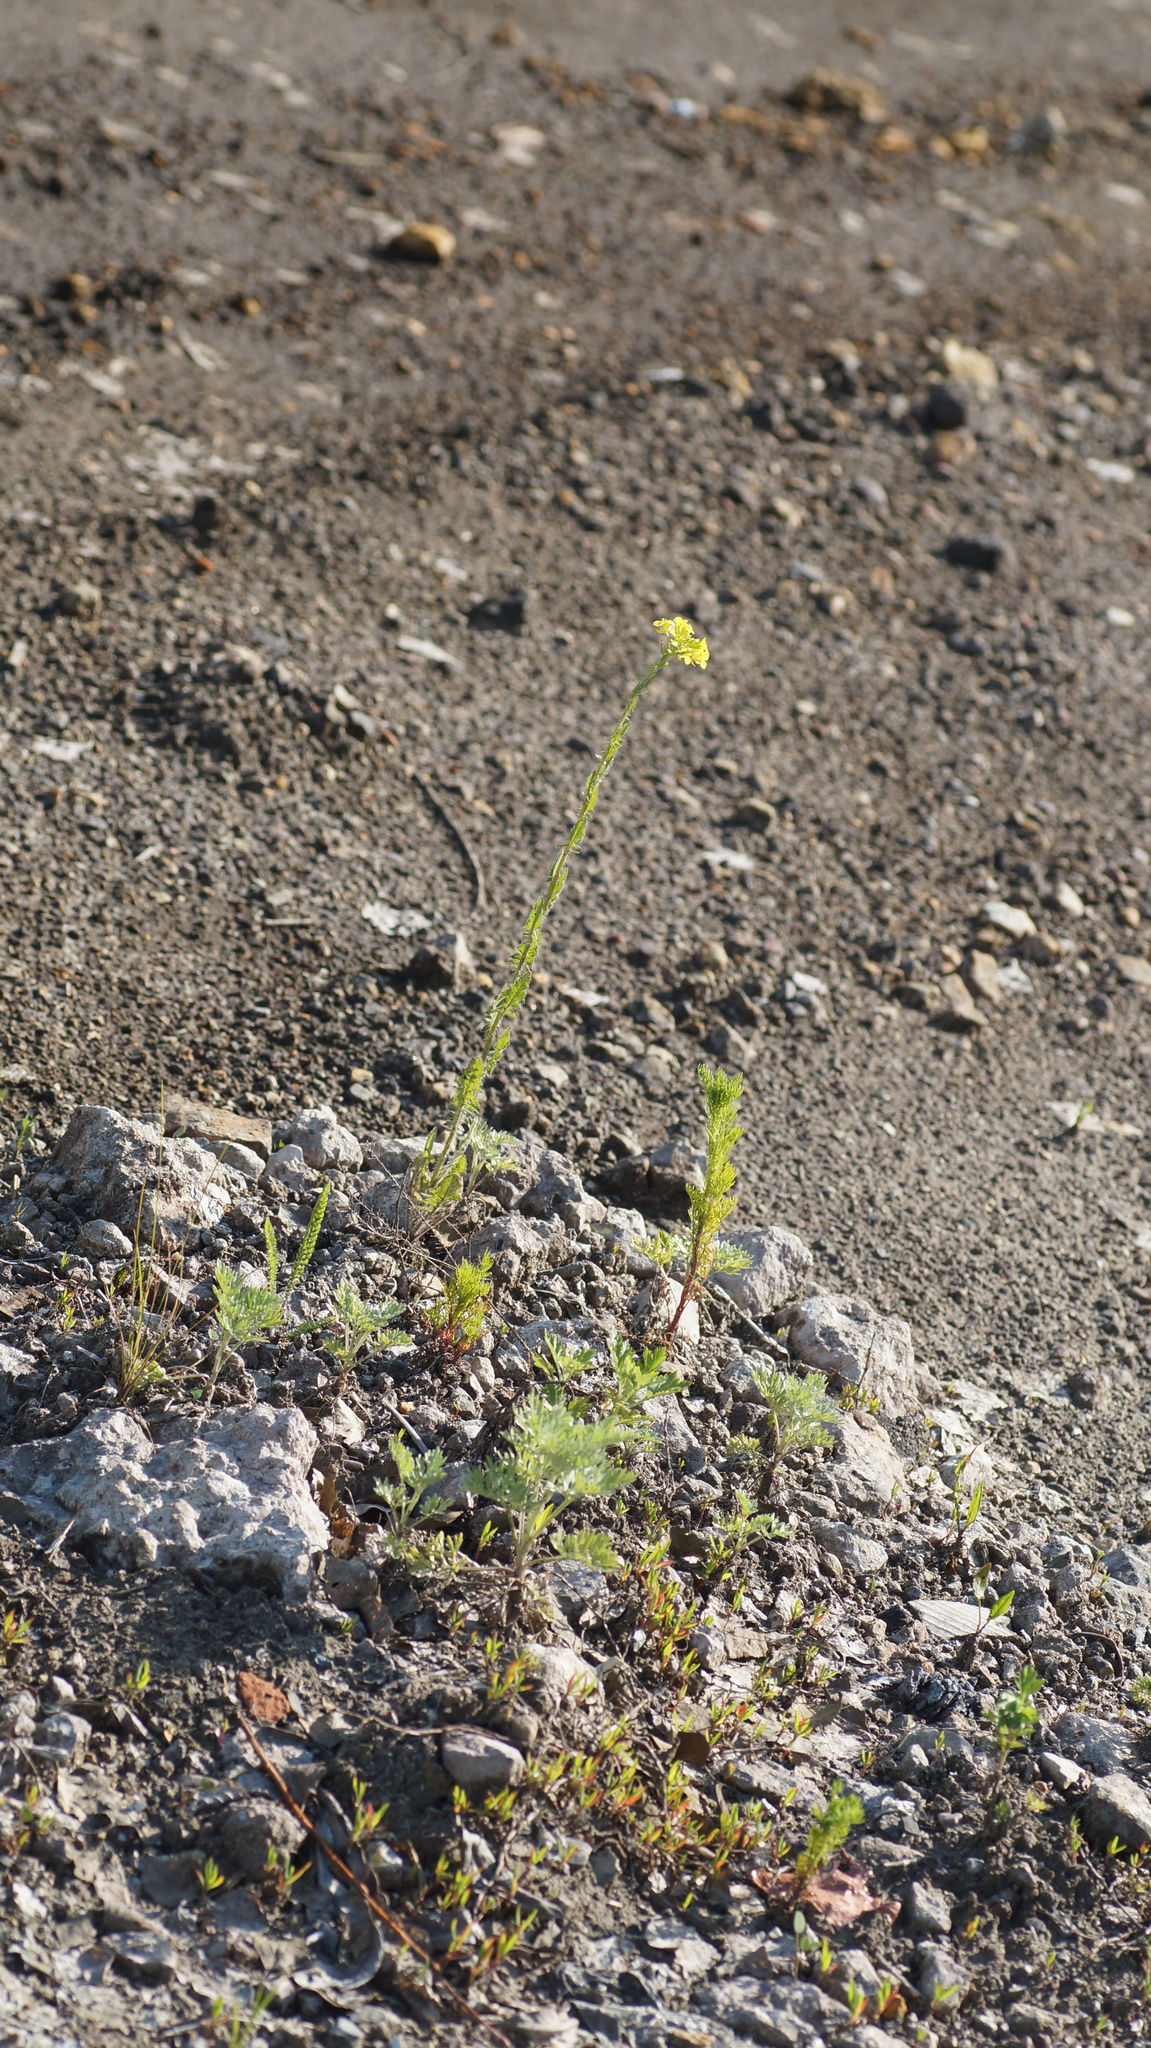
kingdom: Plantae
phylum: Tracheophyta
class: Magnoliopsida
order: Brassicales
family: Brassicaceae
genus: Sisymbrium
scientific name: Sisymbrium loeselii
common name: False london-rocket
